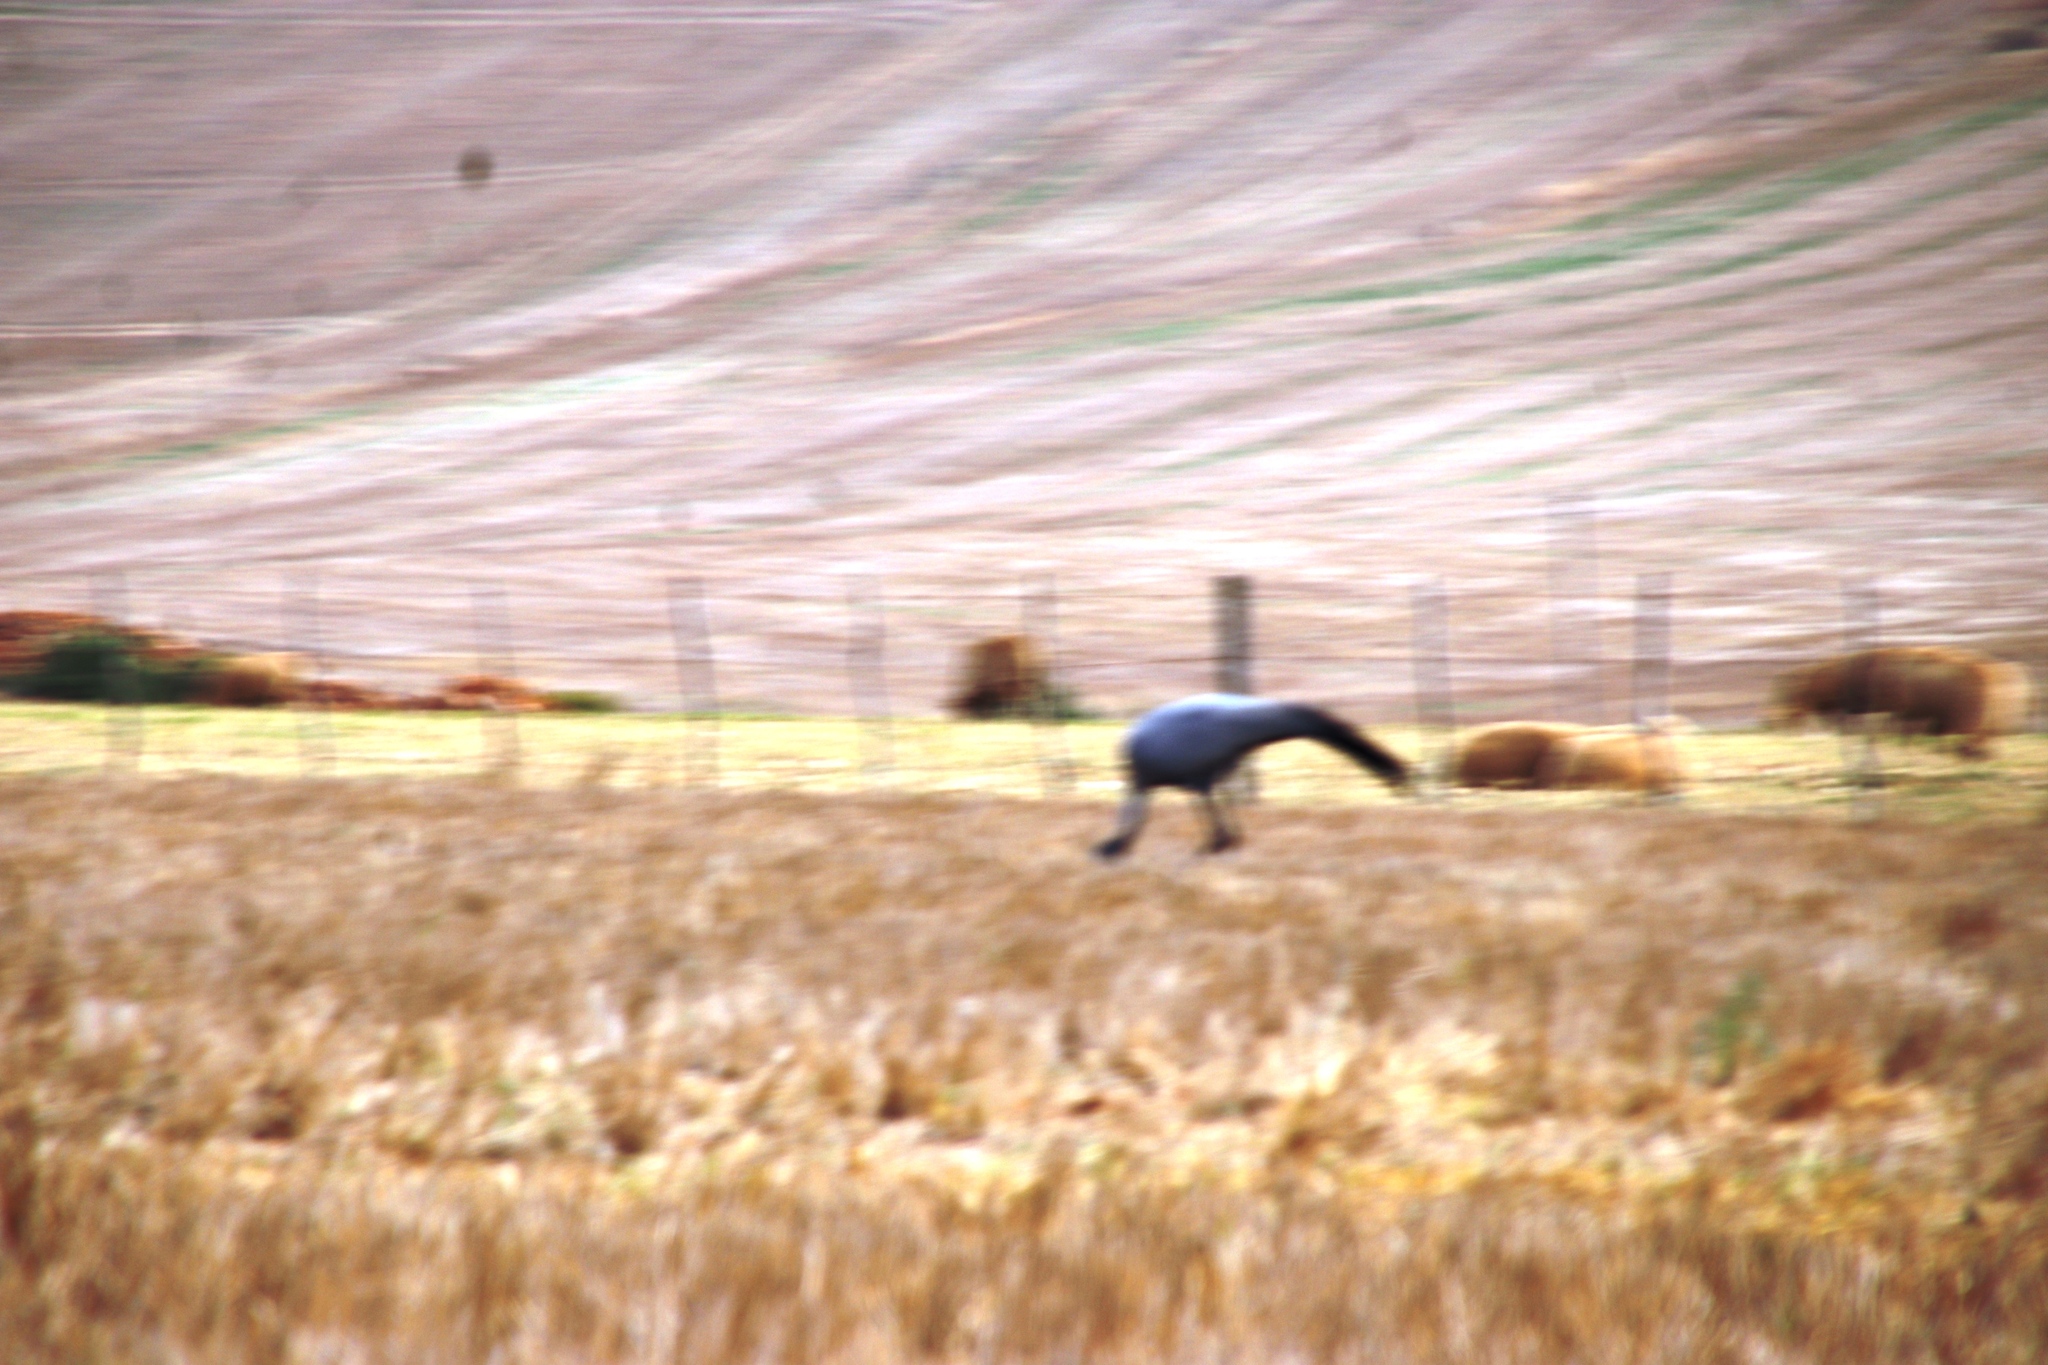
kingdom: Animalia
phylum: Chordata
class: Aves
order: Gruiformes
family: Gruidae
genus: Anthropoides
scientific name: Anthropoides paradiseus
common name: Blue crane
